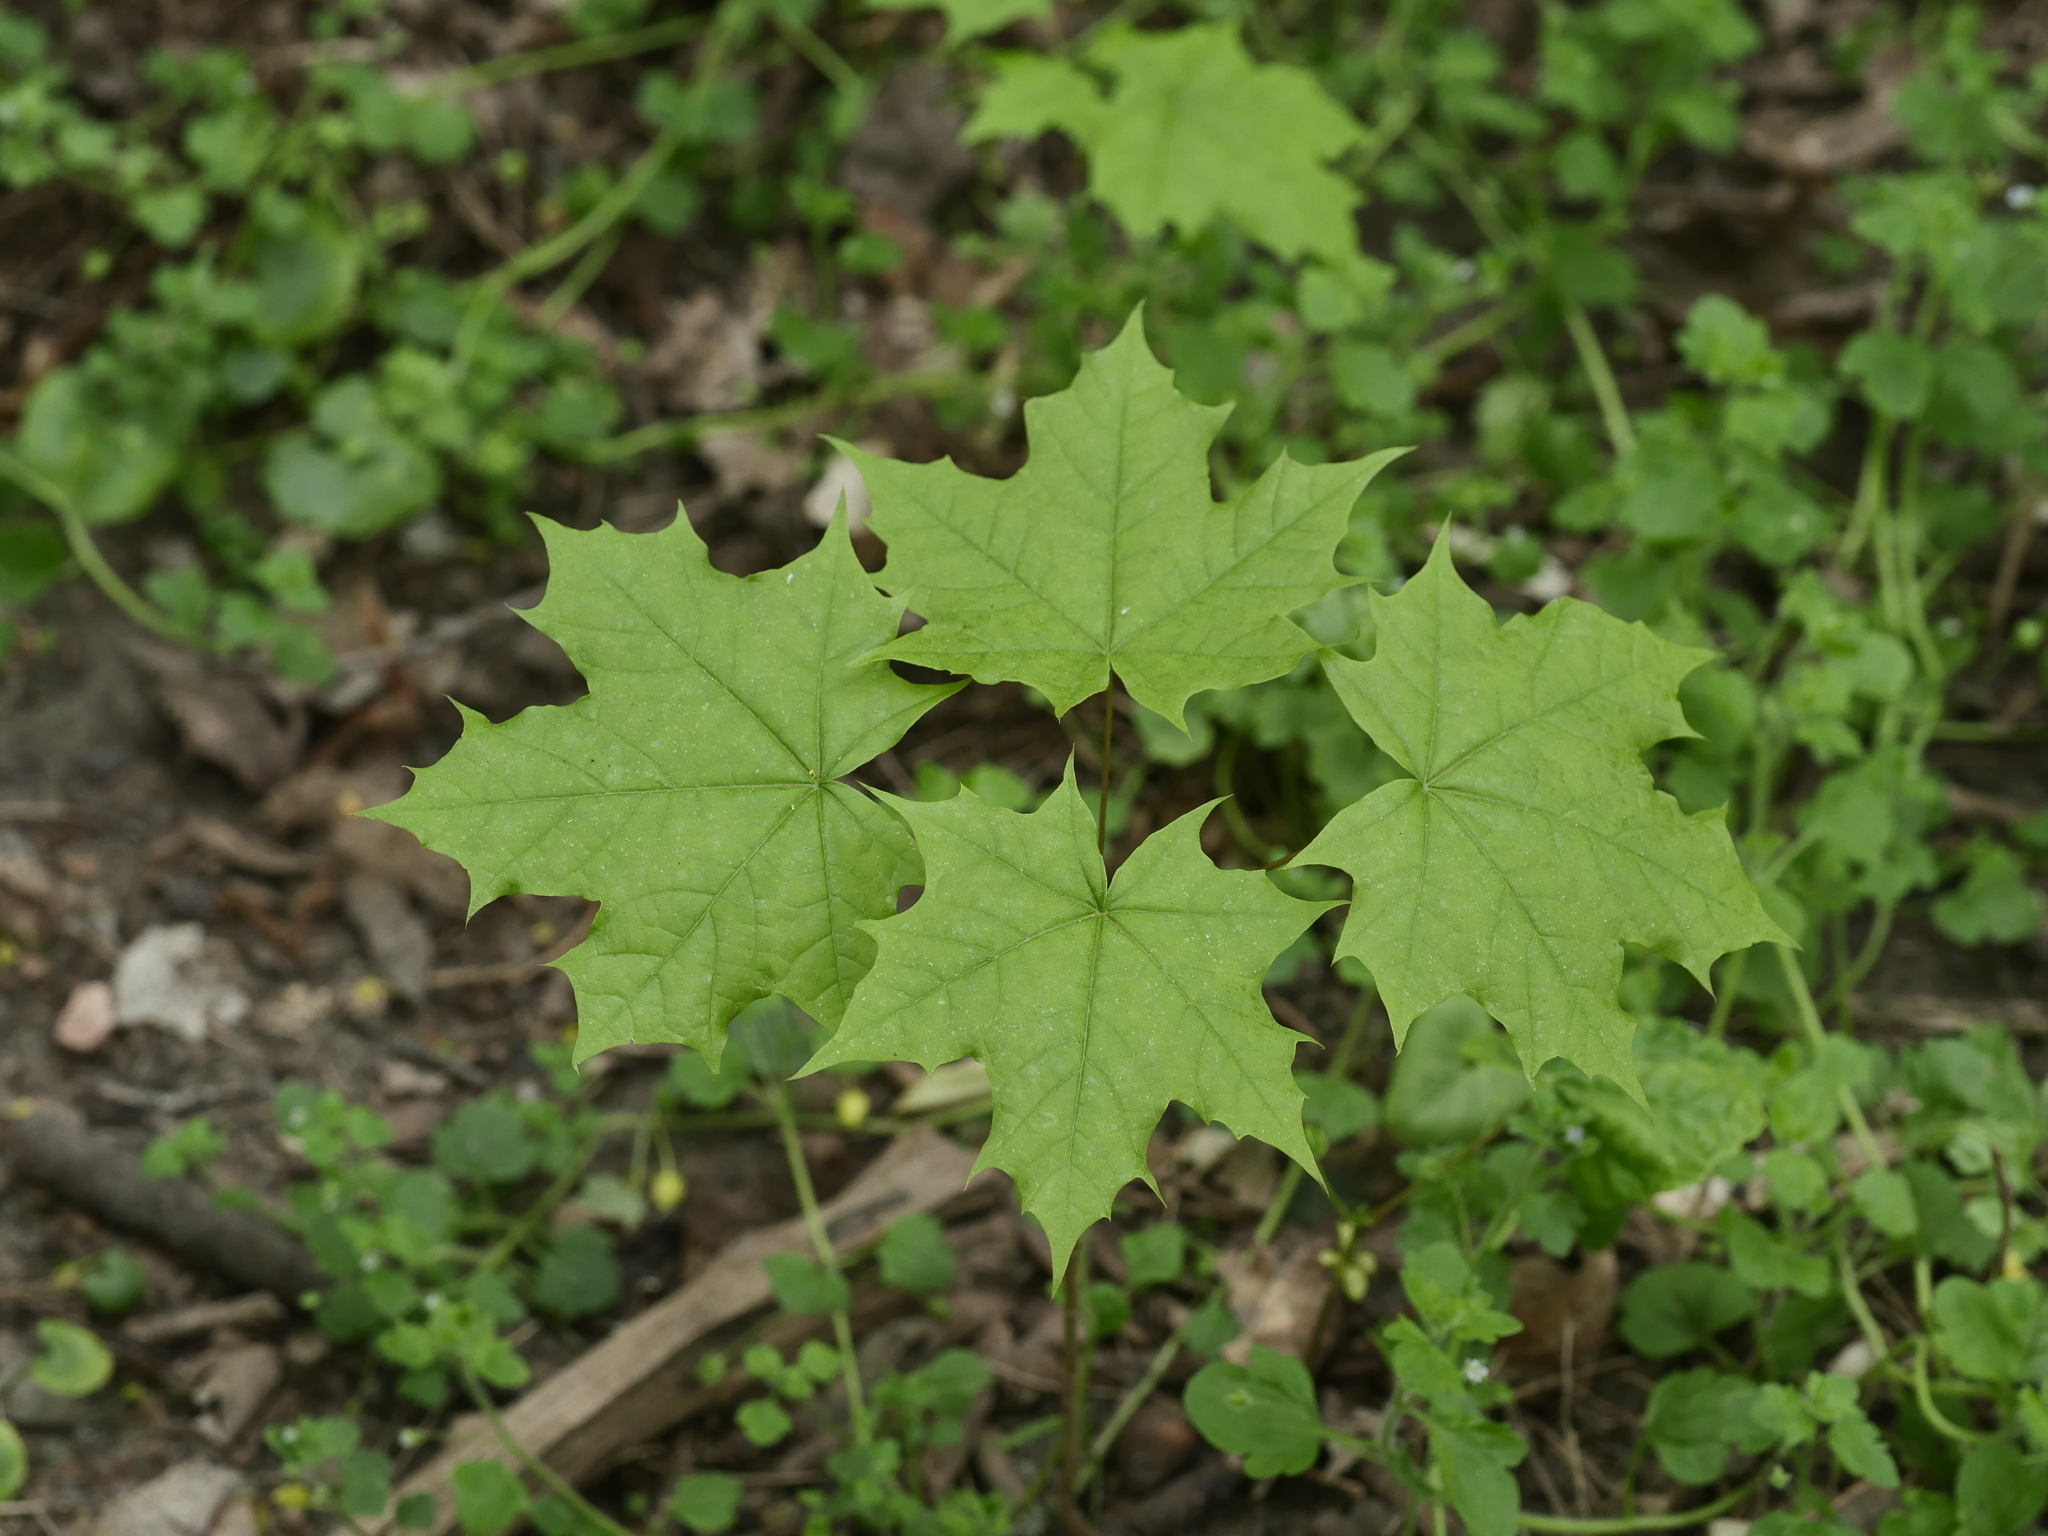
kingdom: Plantae
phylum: Tracheophyta
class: Magnoliopsida
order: Sapindales
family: Sapindaceae
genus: Acer
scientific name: Acer platanoides
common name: Norway maple
